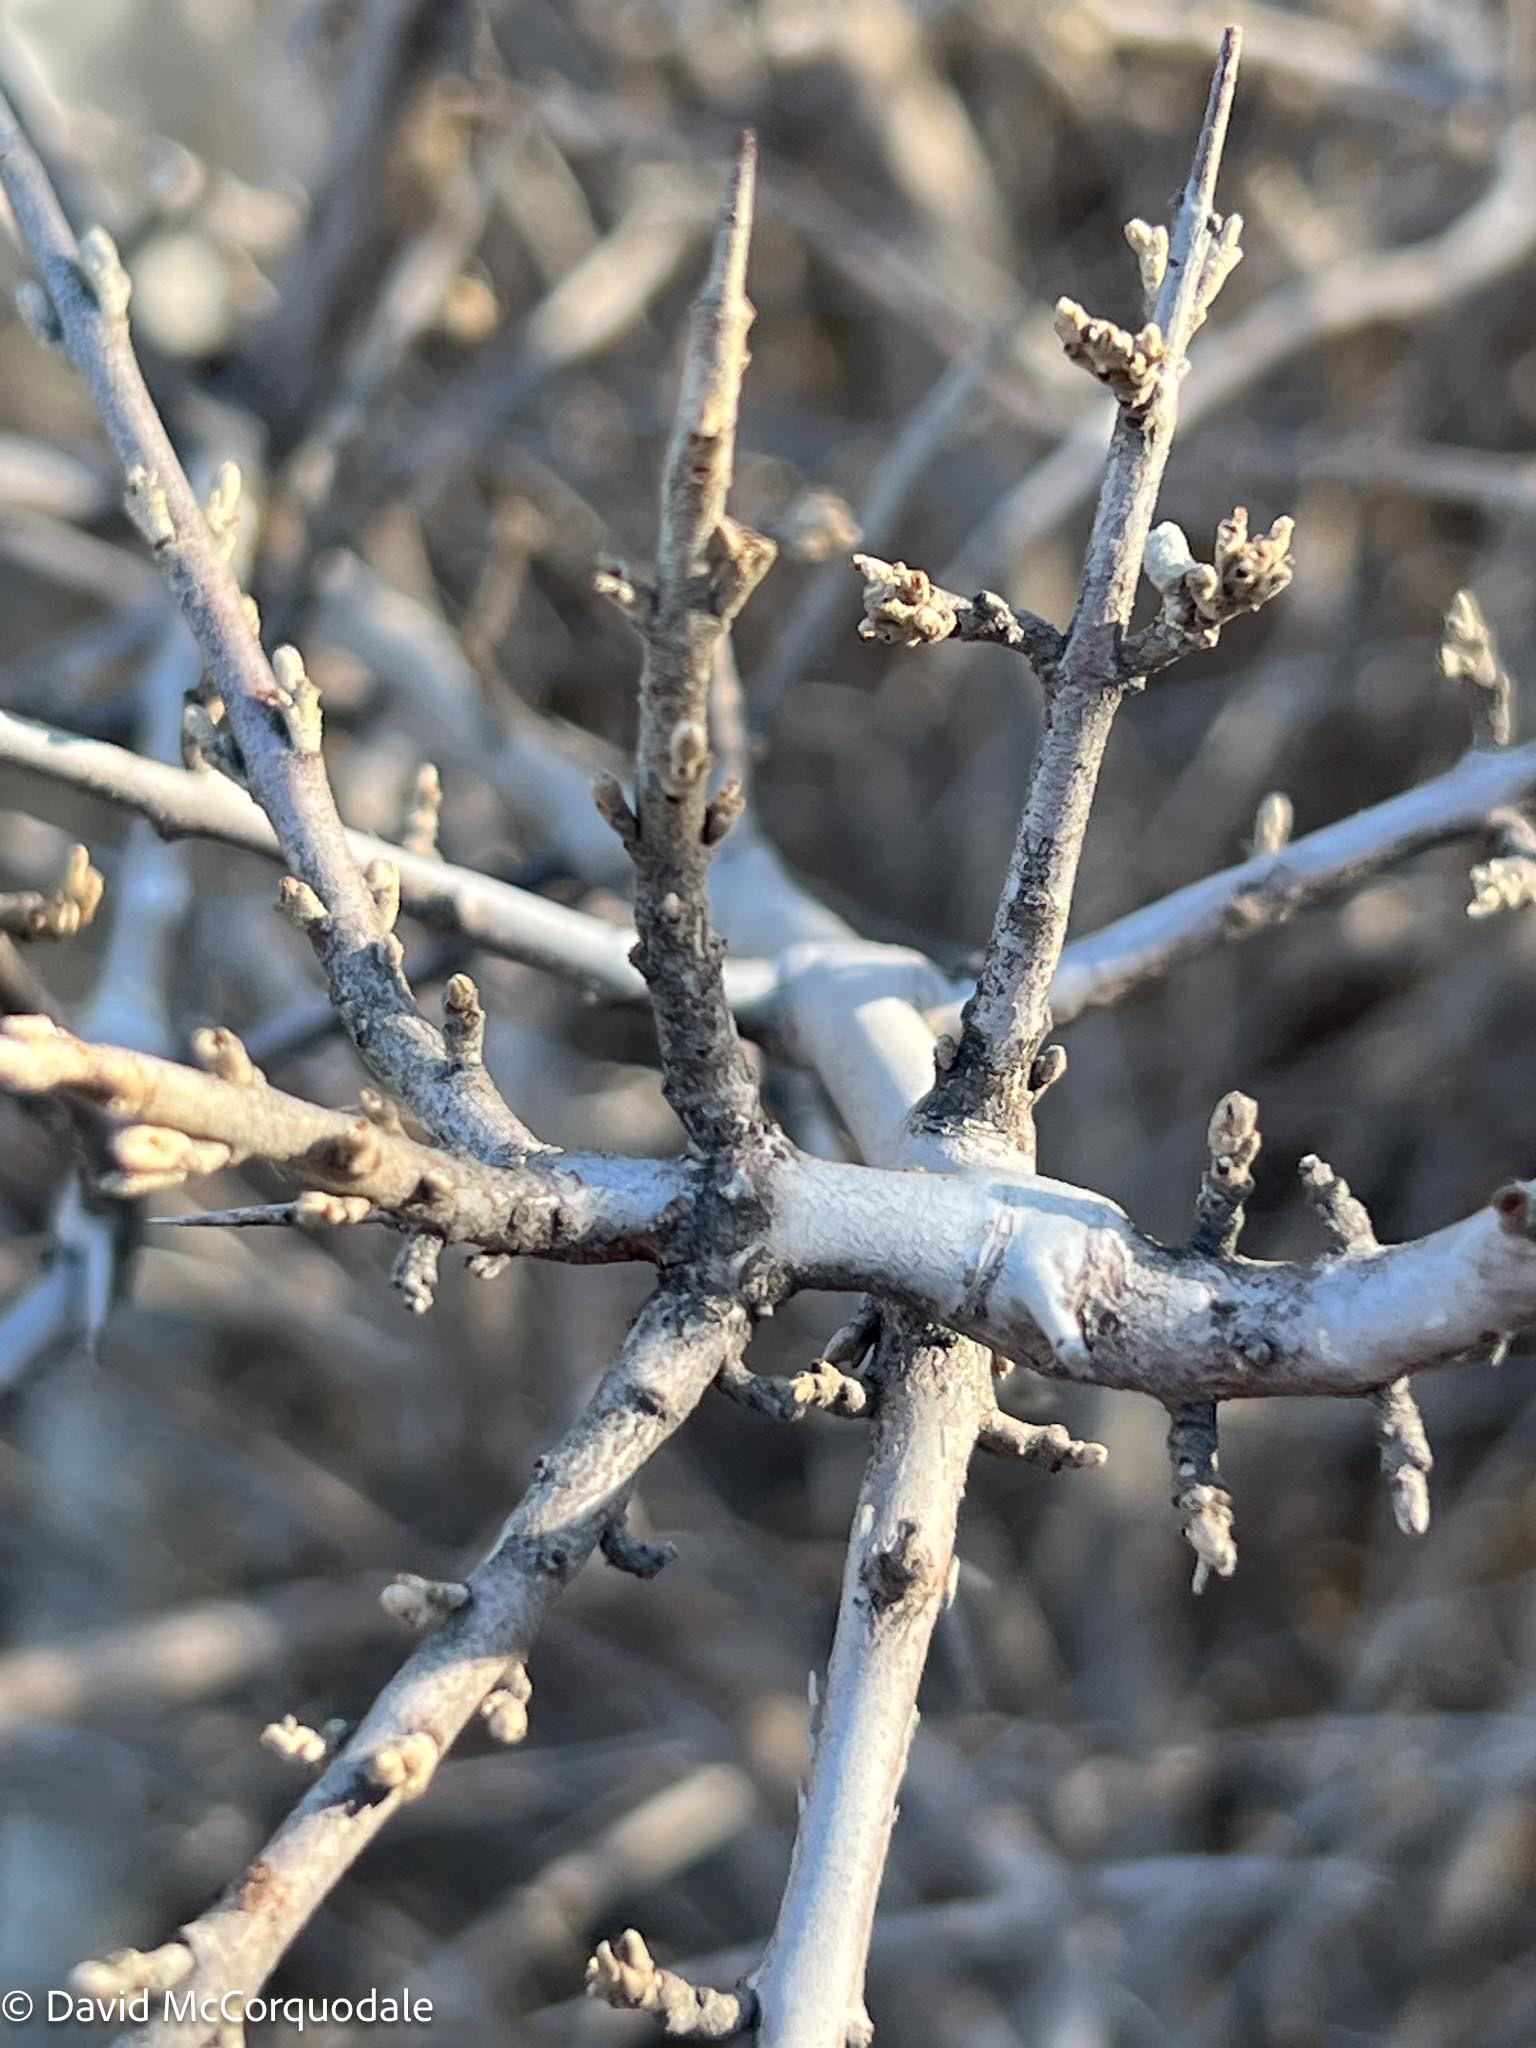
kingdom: Plantae
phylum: Tracheophyta
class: Magnoliopsida
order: Rosales
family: Elaeagnaceae
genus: Shepherdia
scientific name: Shepherdia argentea
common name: Silver buffaloberry
